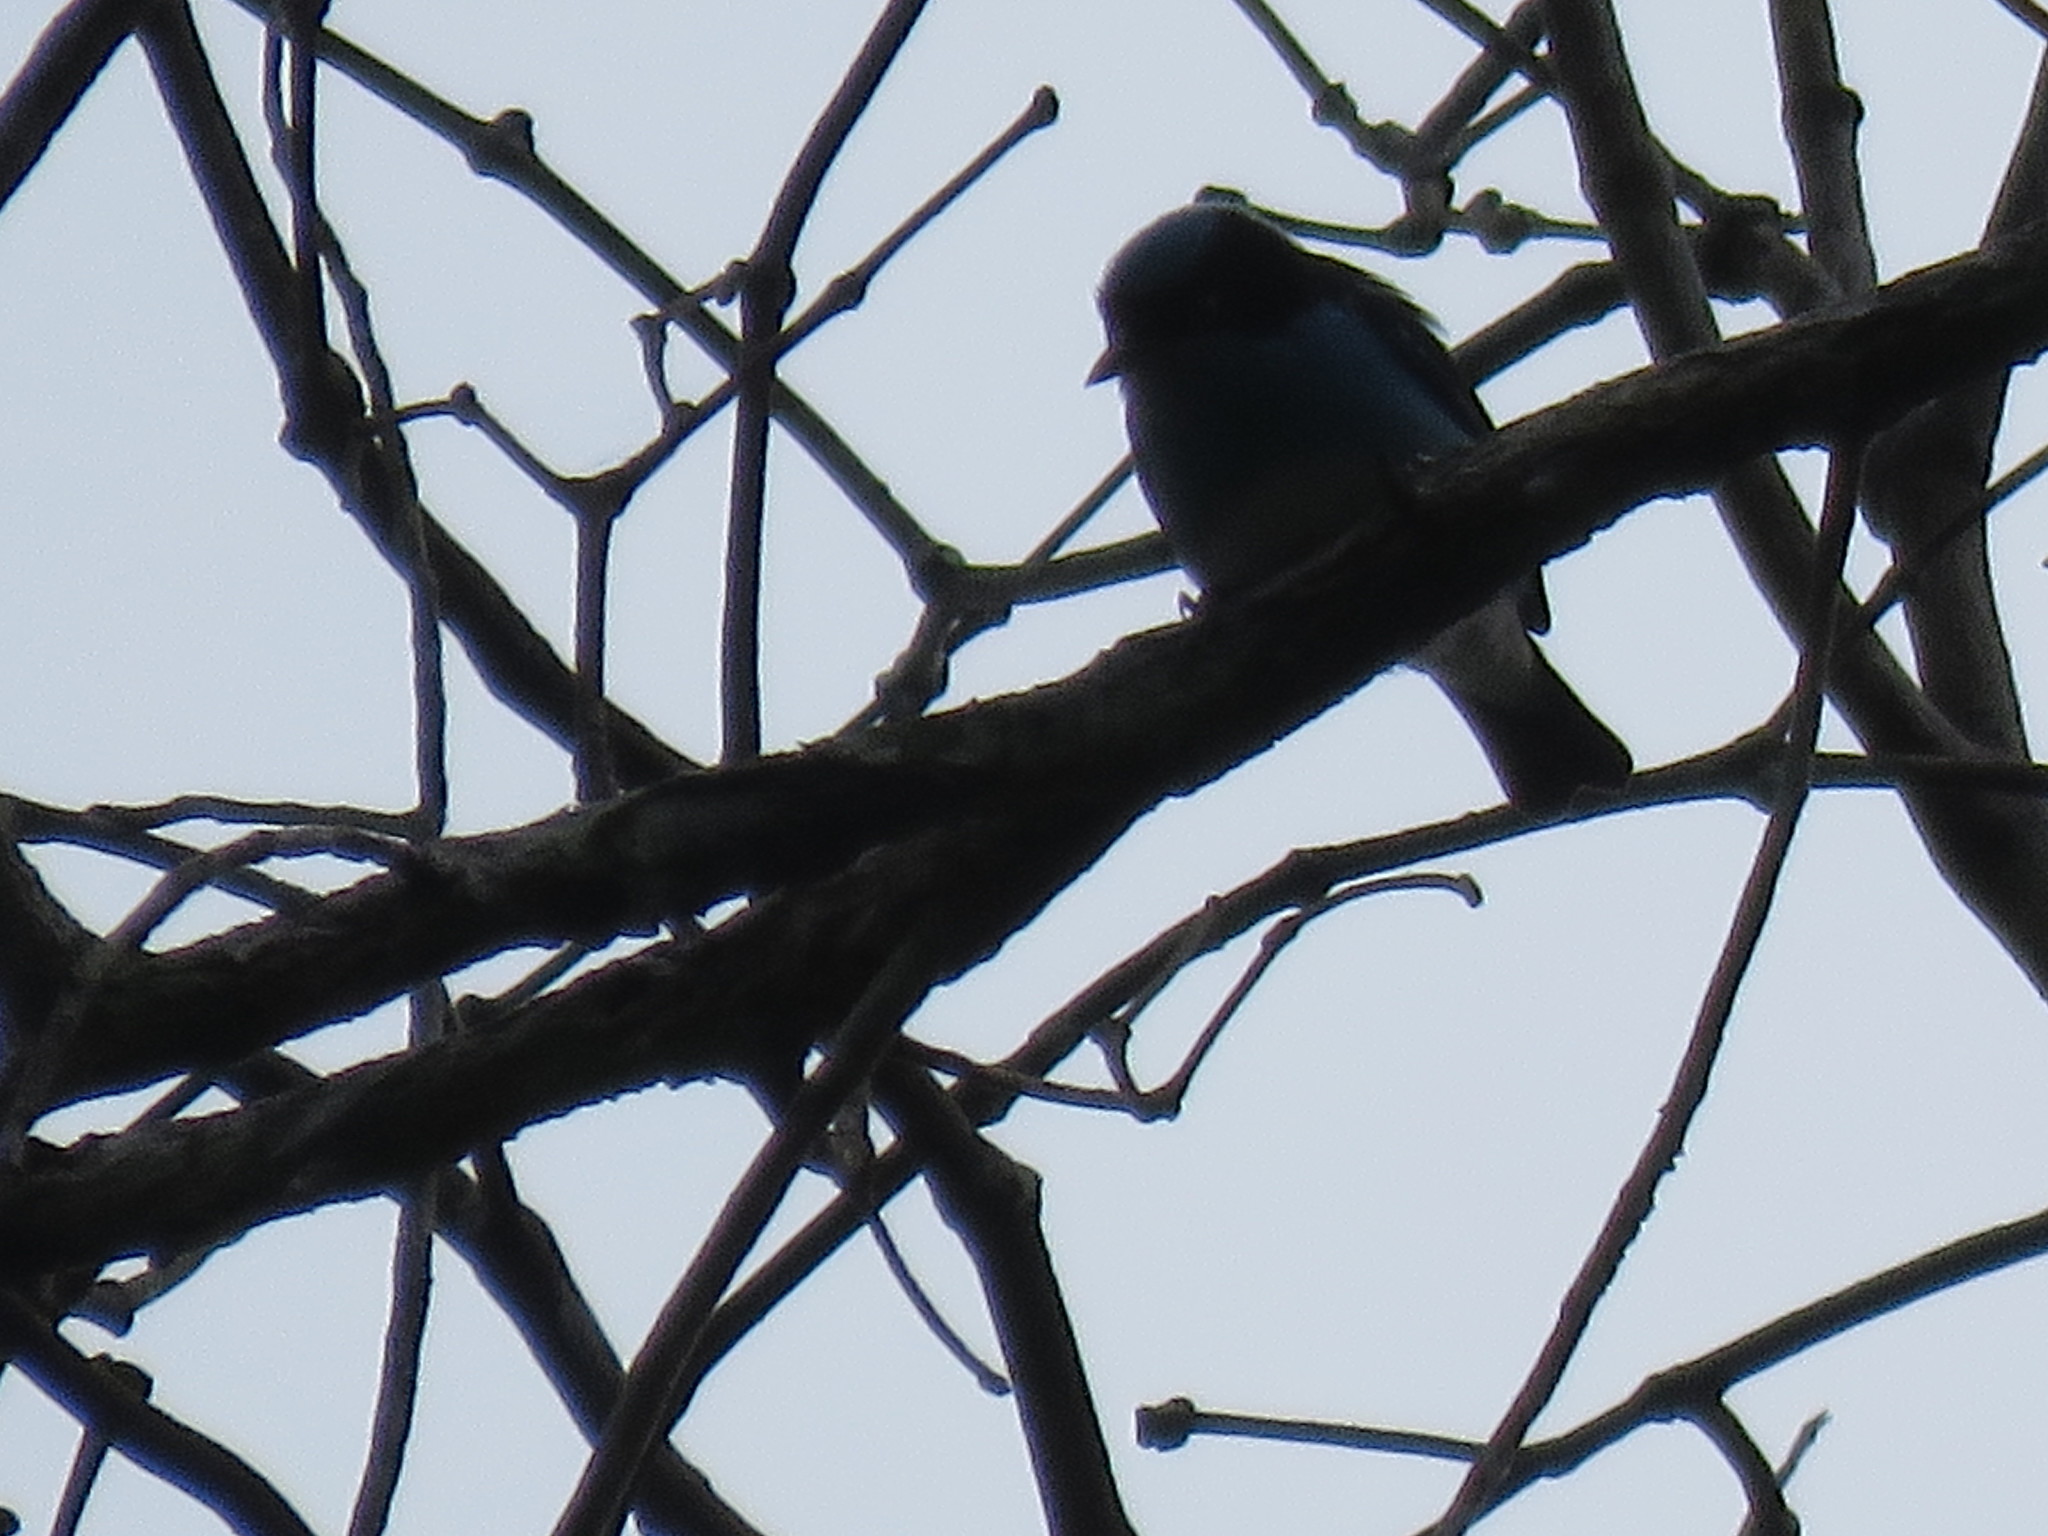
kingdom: Animalia
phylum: Chordata
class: Aves
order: Passeriformes
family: Thraupidae
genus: Dacnis
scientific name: Dacnis lineata
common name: Black-faced dacnis
